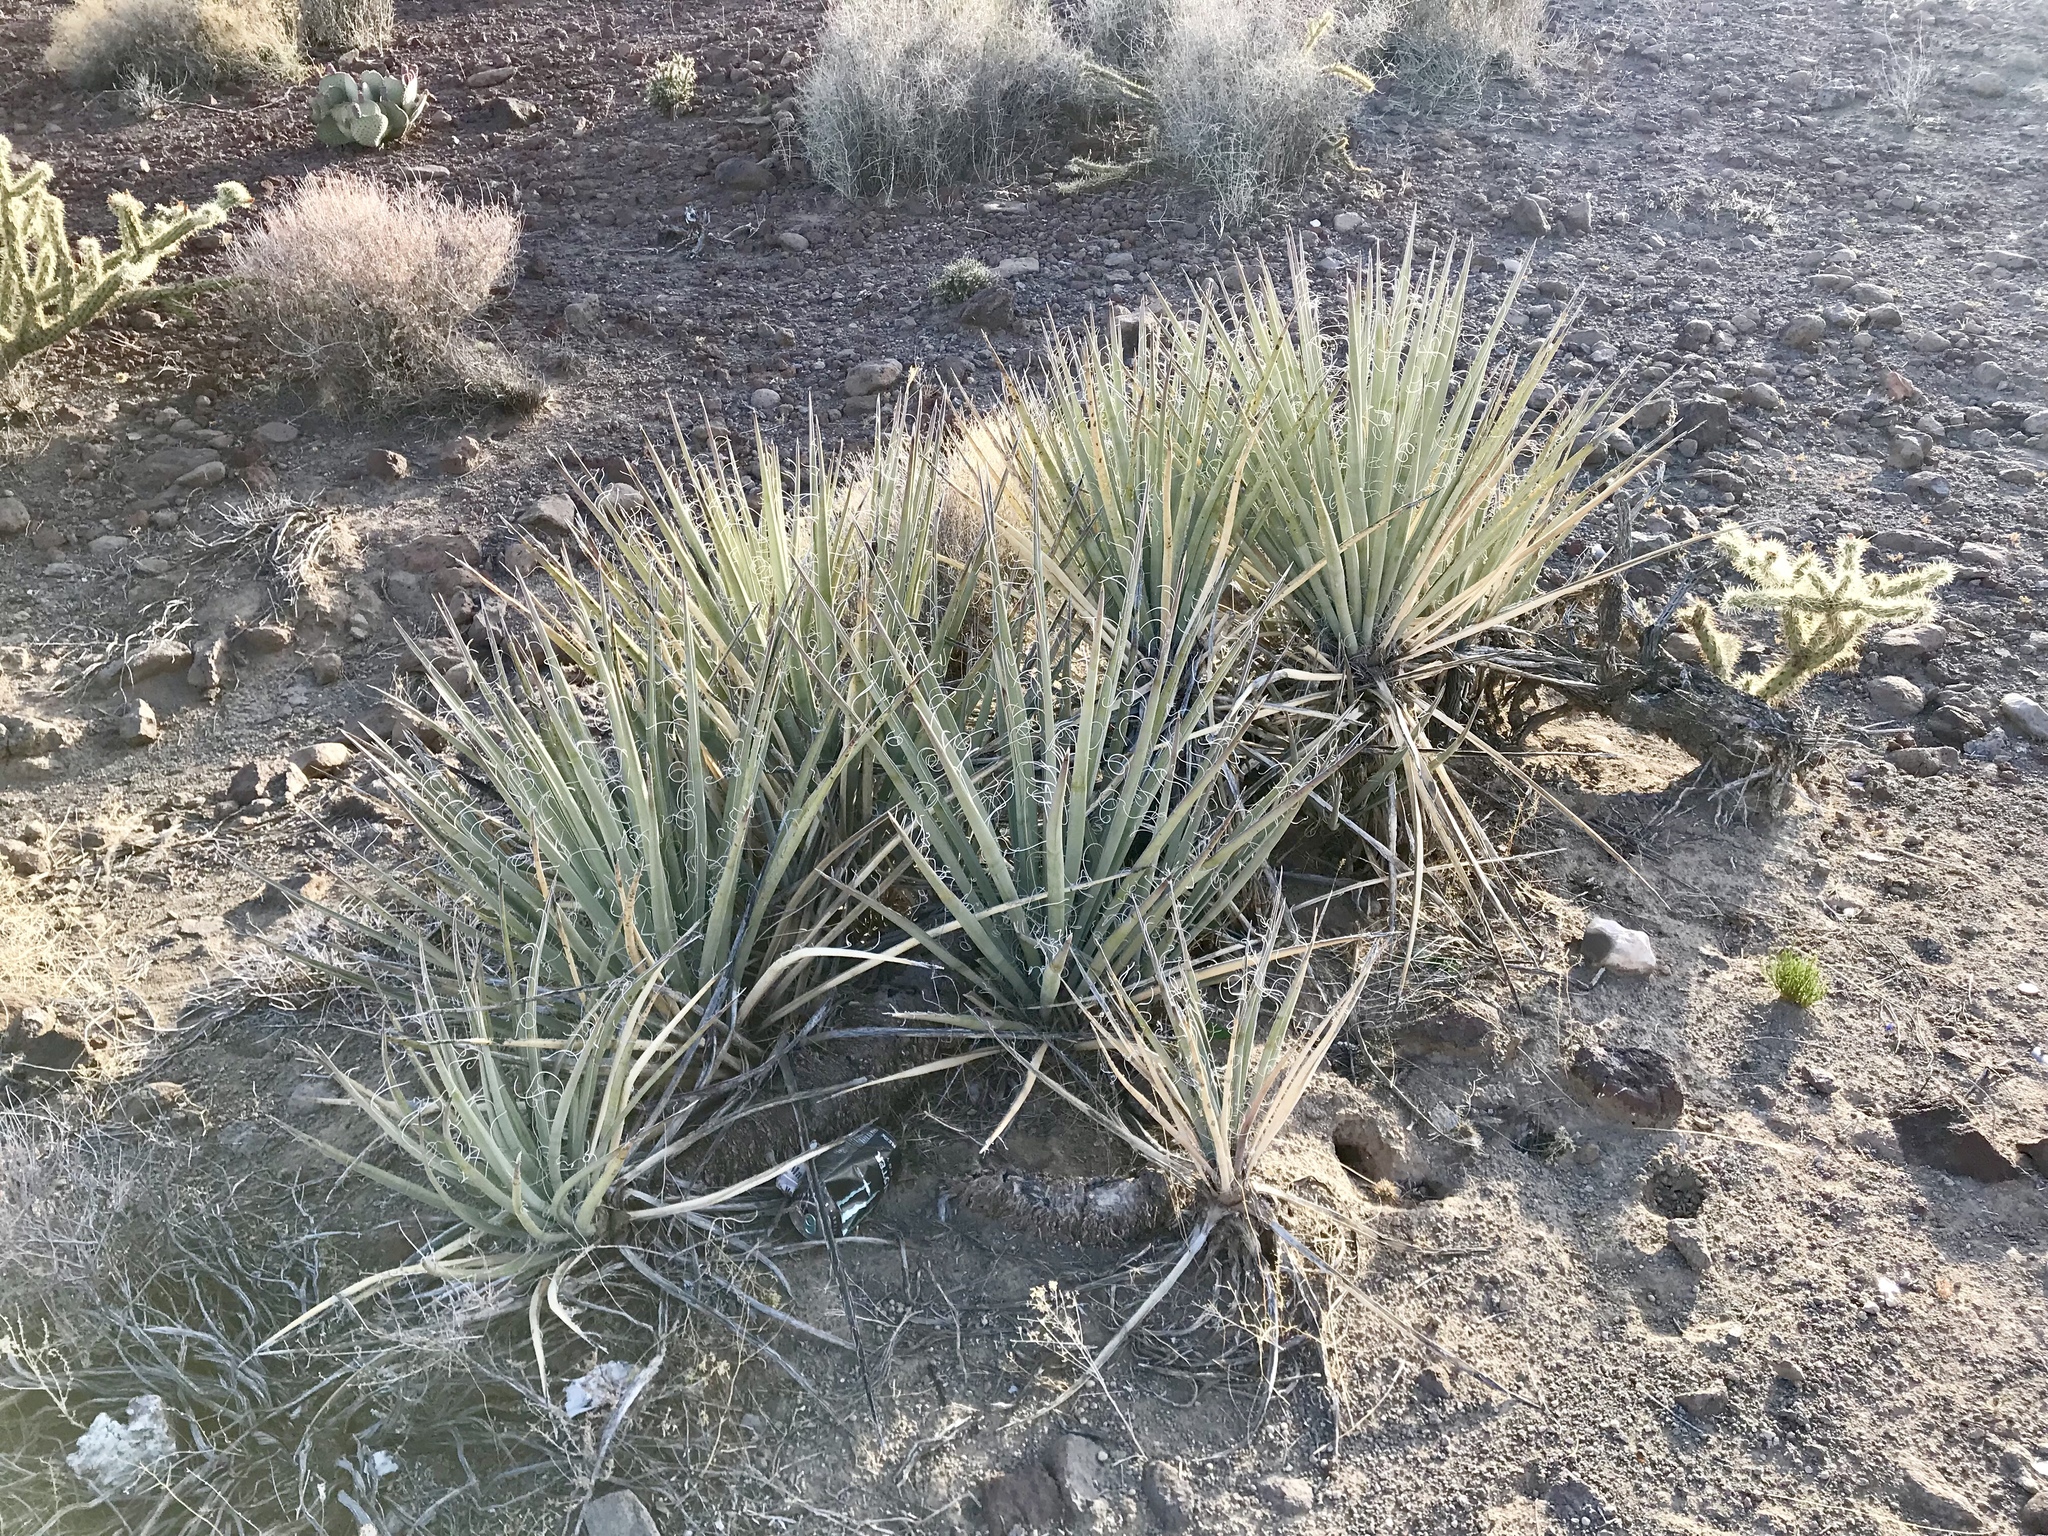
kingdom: Plantae
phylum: Tracheophyta
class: Liliopsida
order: Asparagales
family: Asparagaceae
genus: Yucca
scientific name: Yucca baccata
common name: Banana yucca
